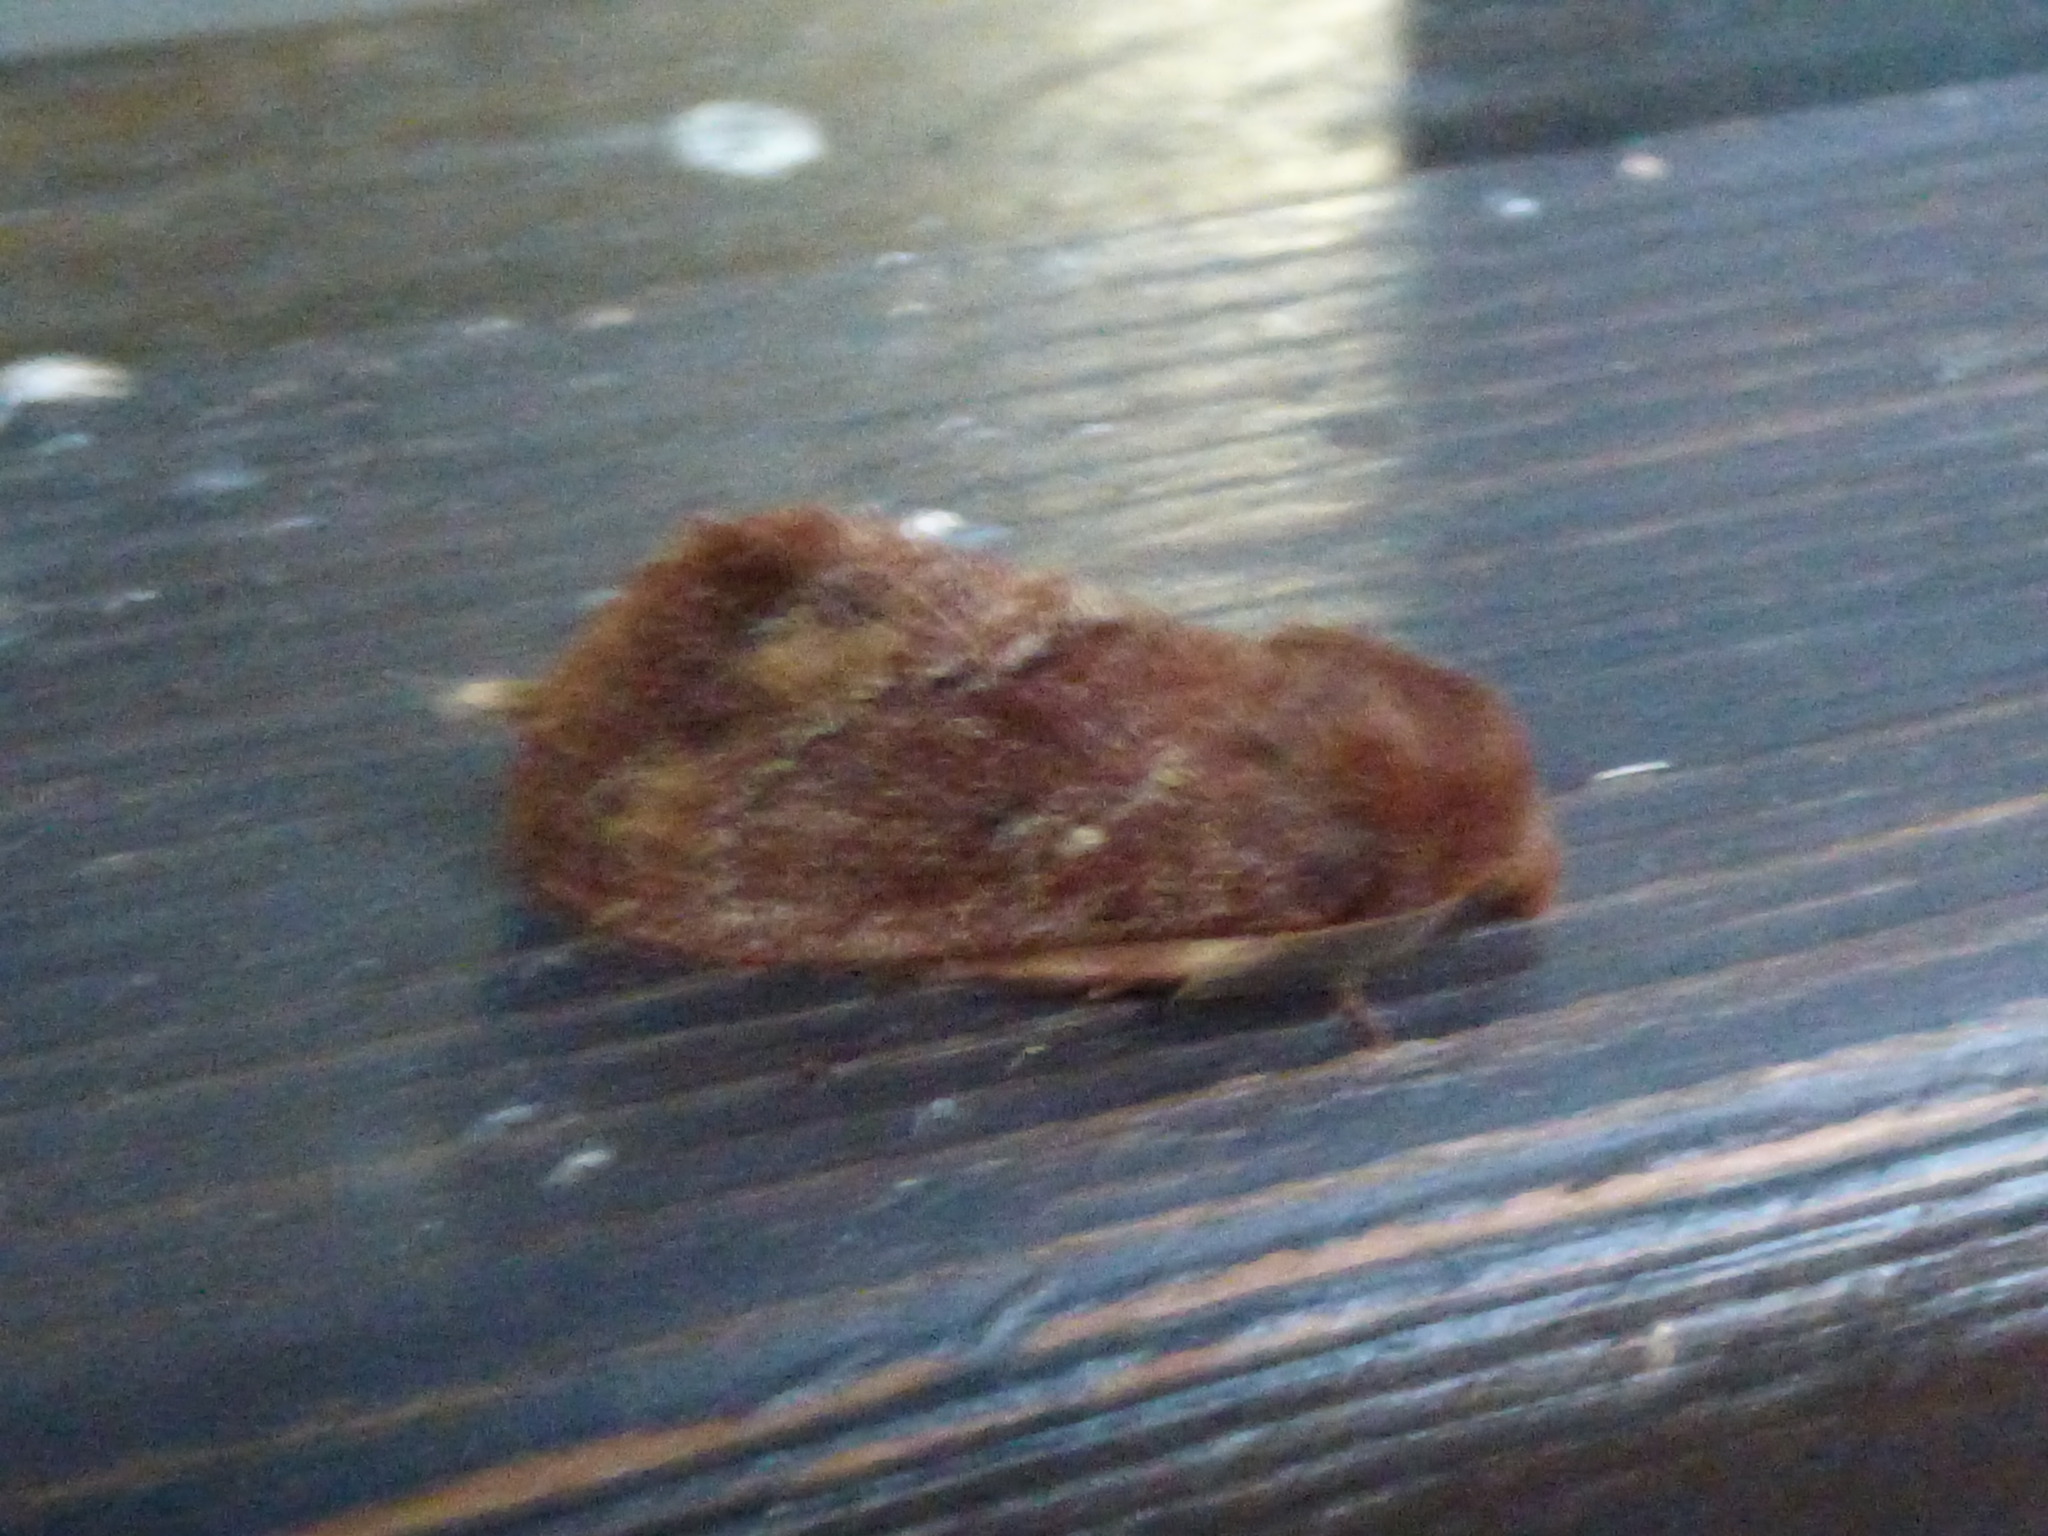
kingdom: Animalia
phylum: Arthropoda
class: Insecta
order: Lepidoptera
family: Lasiocampidae
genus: Dendrolimus
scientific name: Dendrolimus arizana
